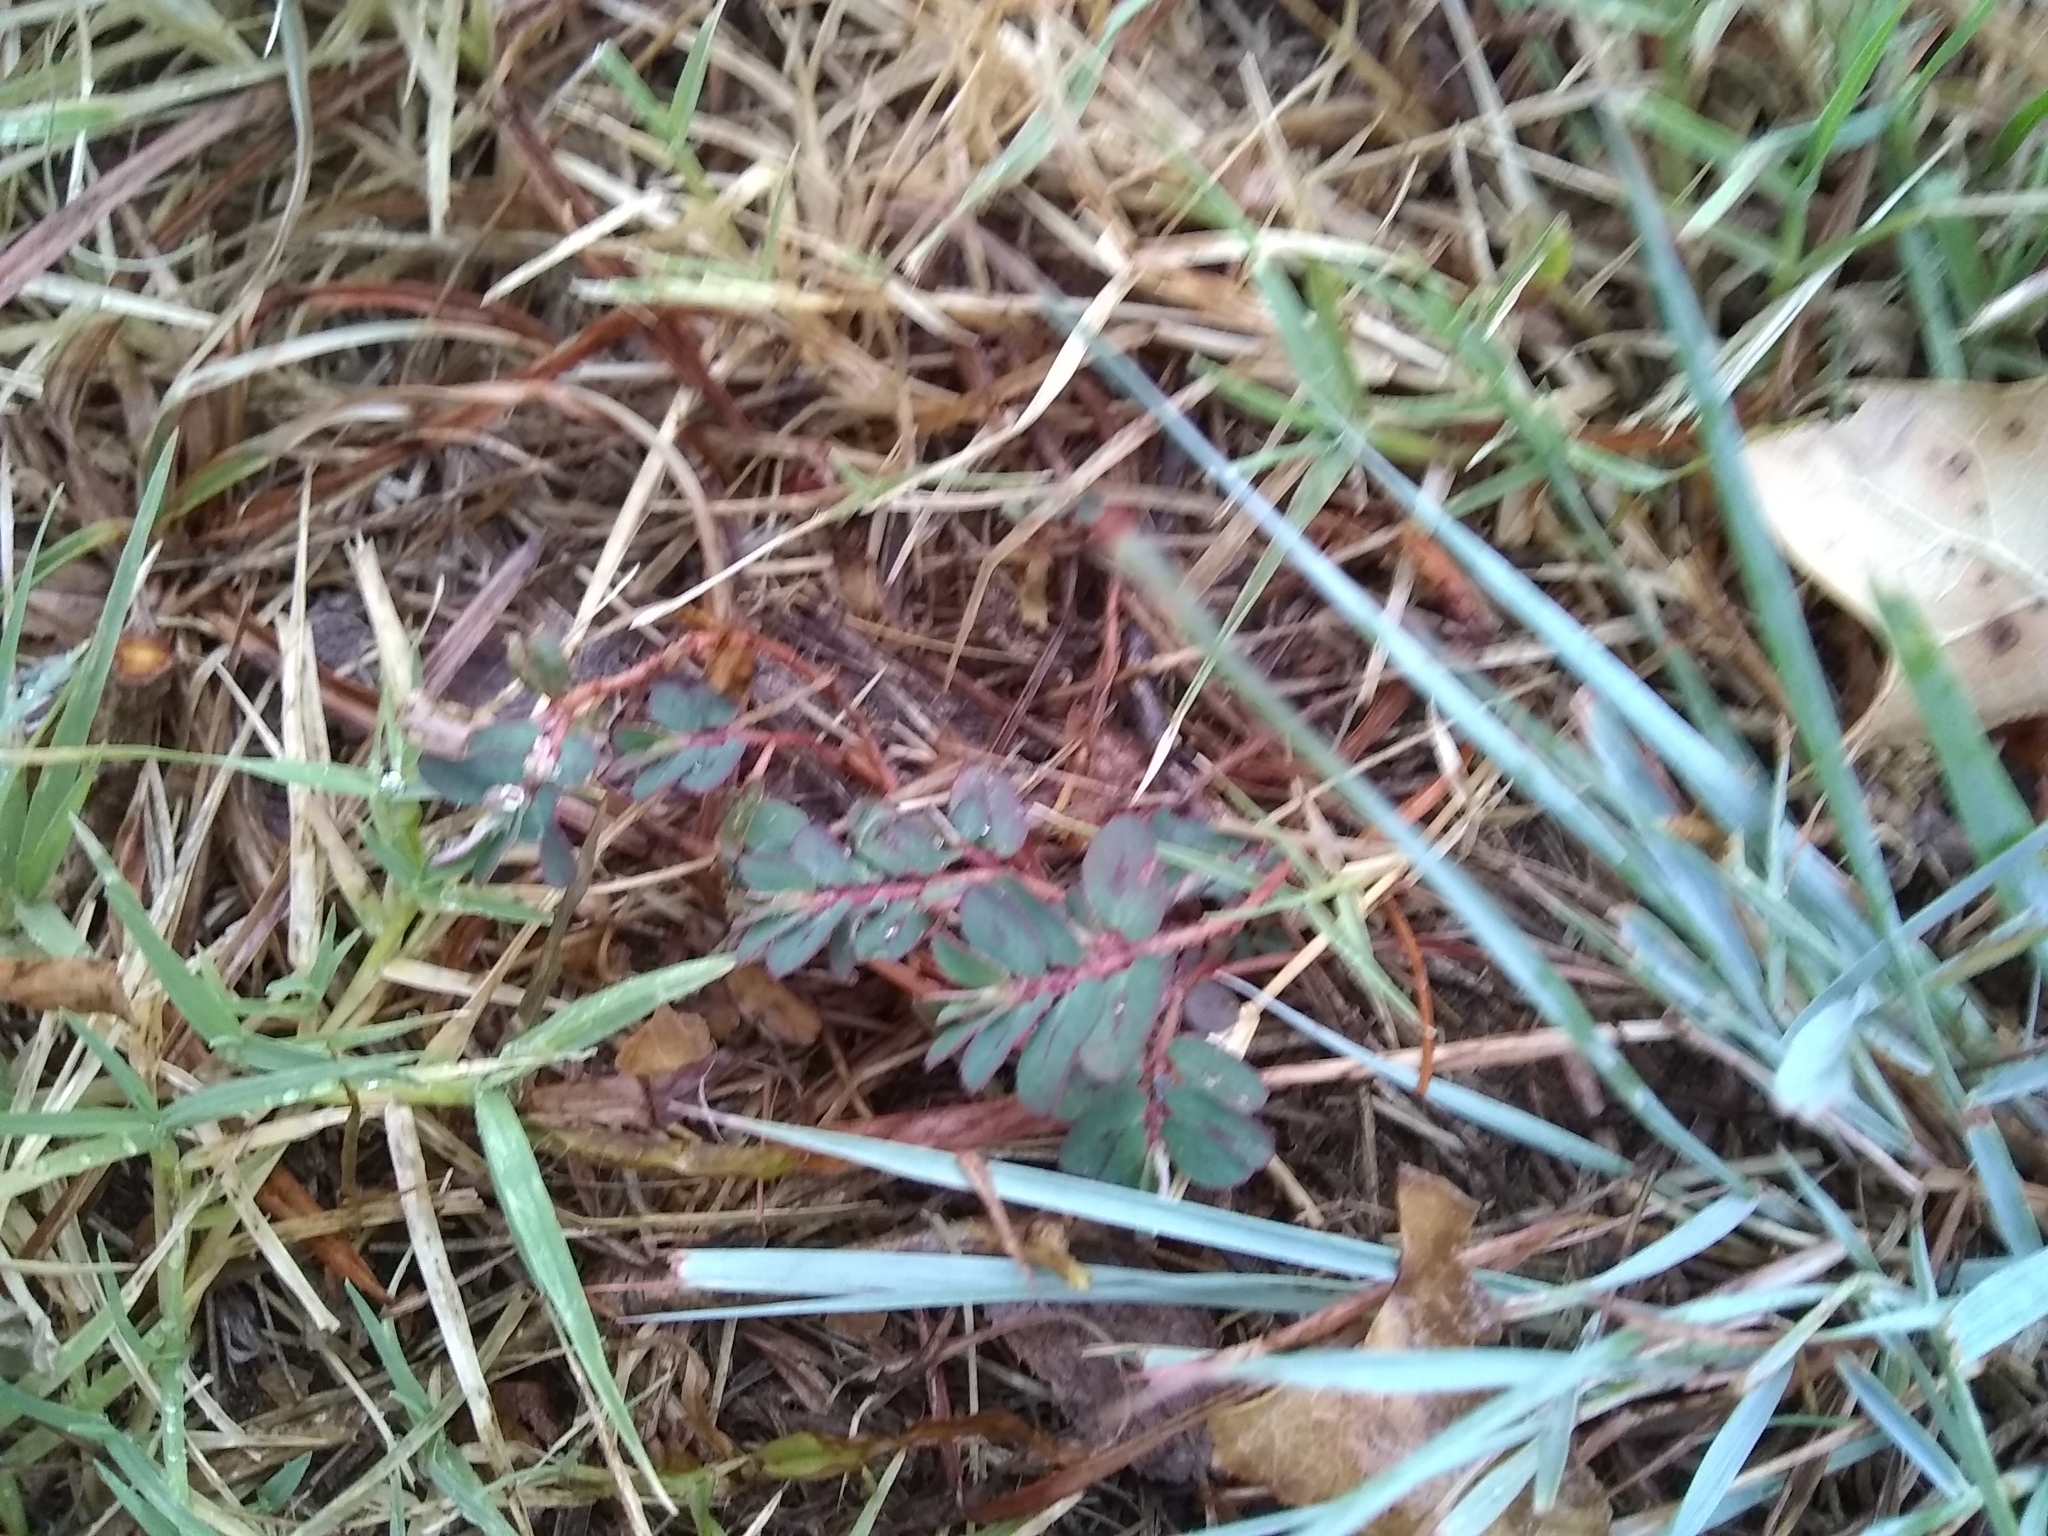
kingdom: Plantae
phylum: Tracheophyta
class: Magnoliopsida
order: Malpighiales
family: Euphorbiaceae
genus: Euphorbia
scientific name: Euphorbia maculata
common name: Spotted spurge
